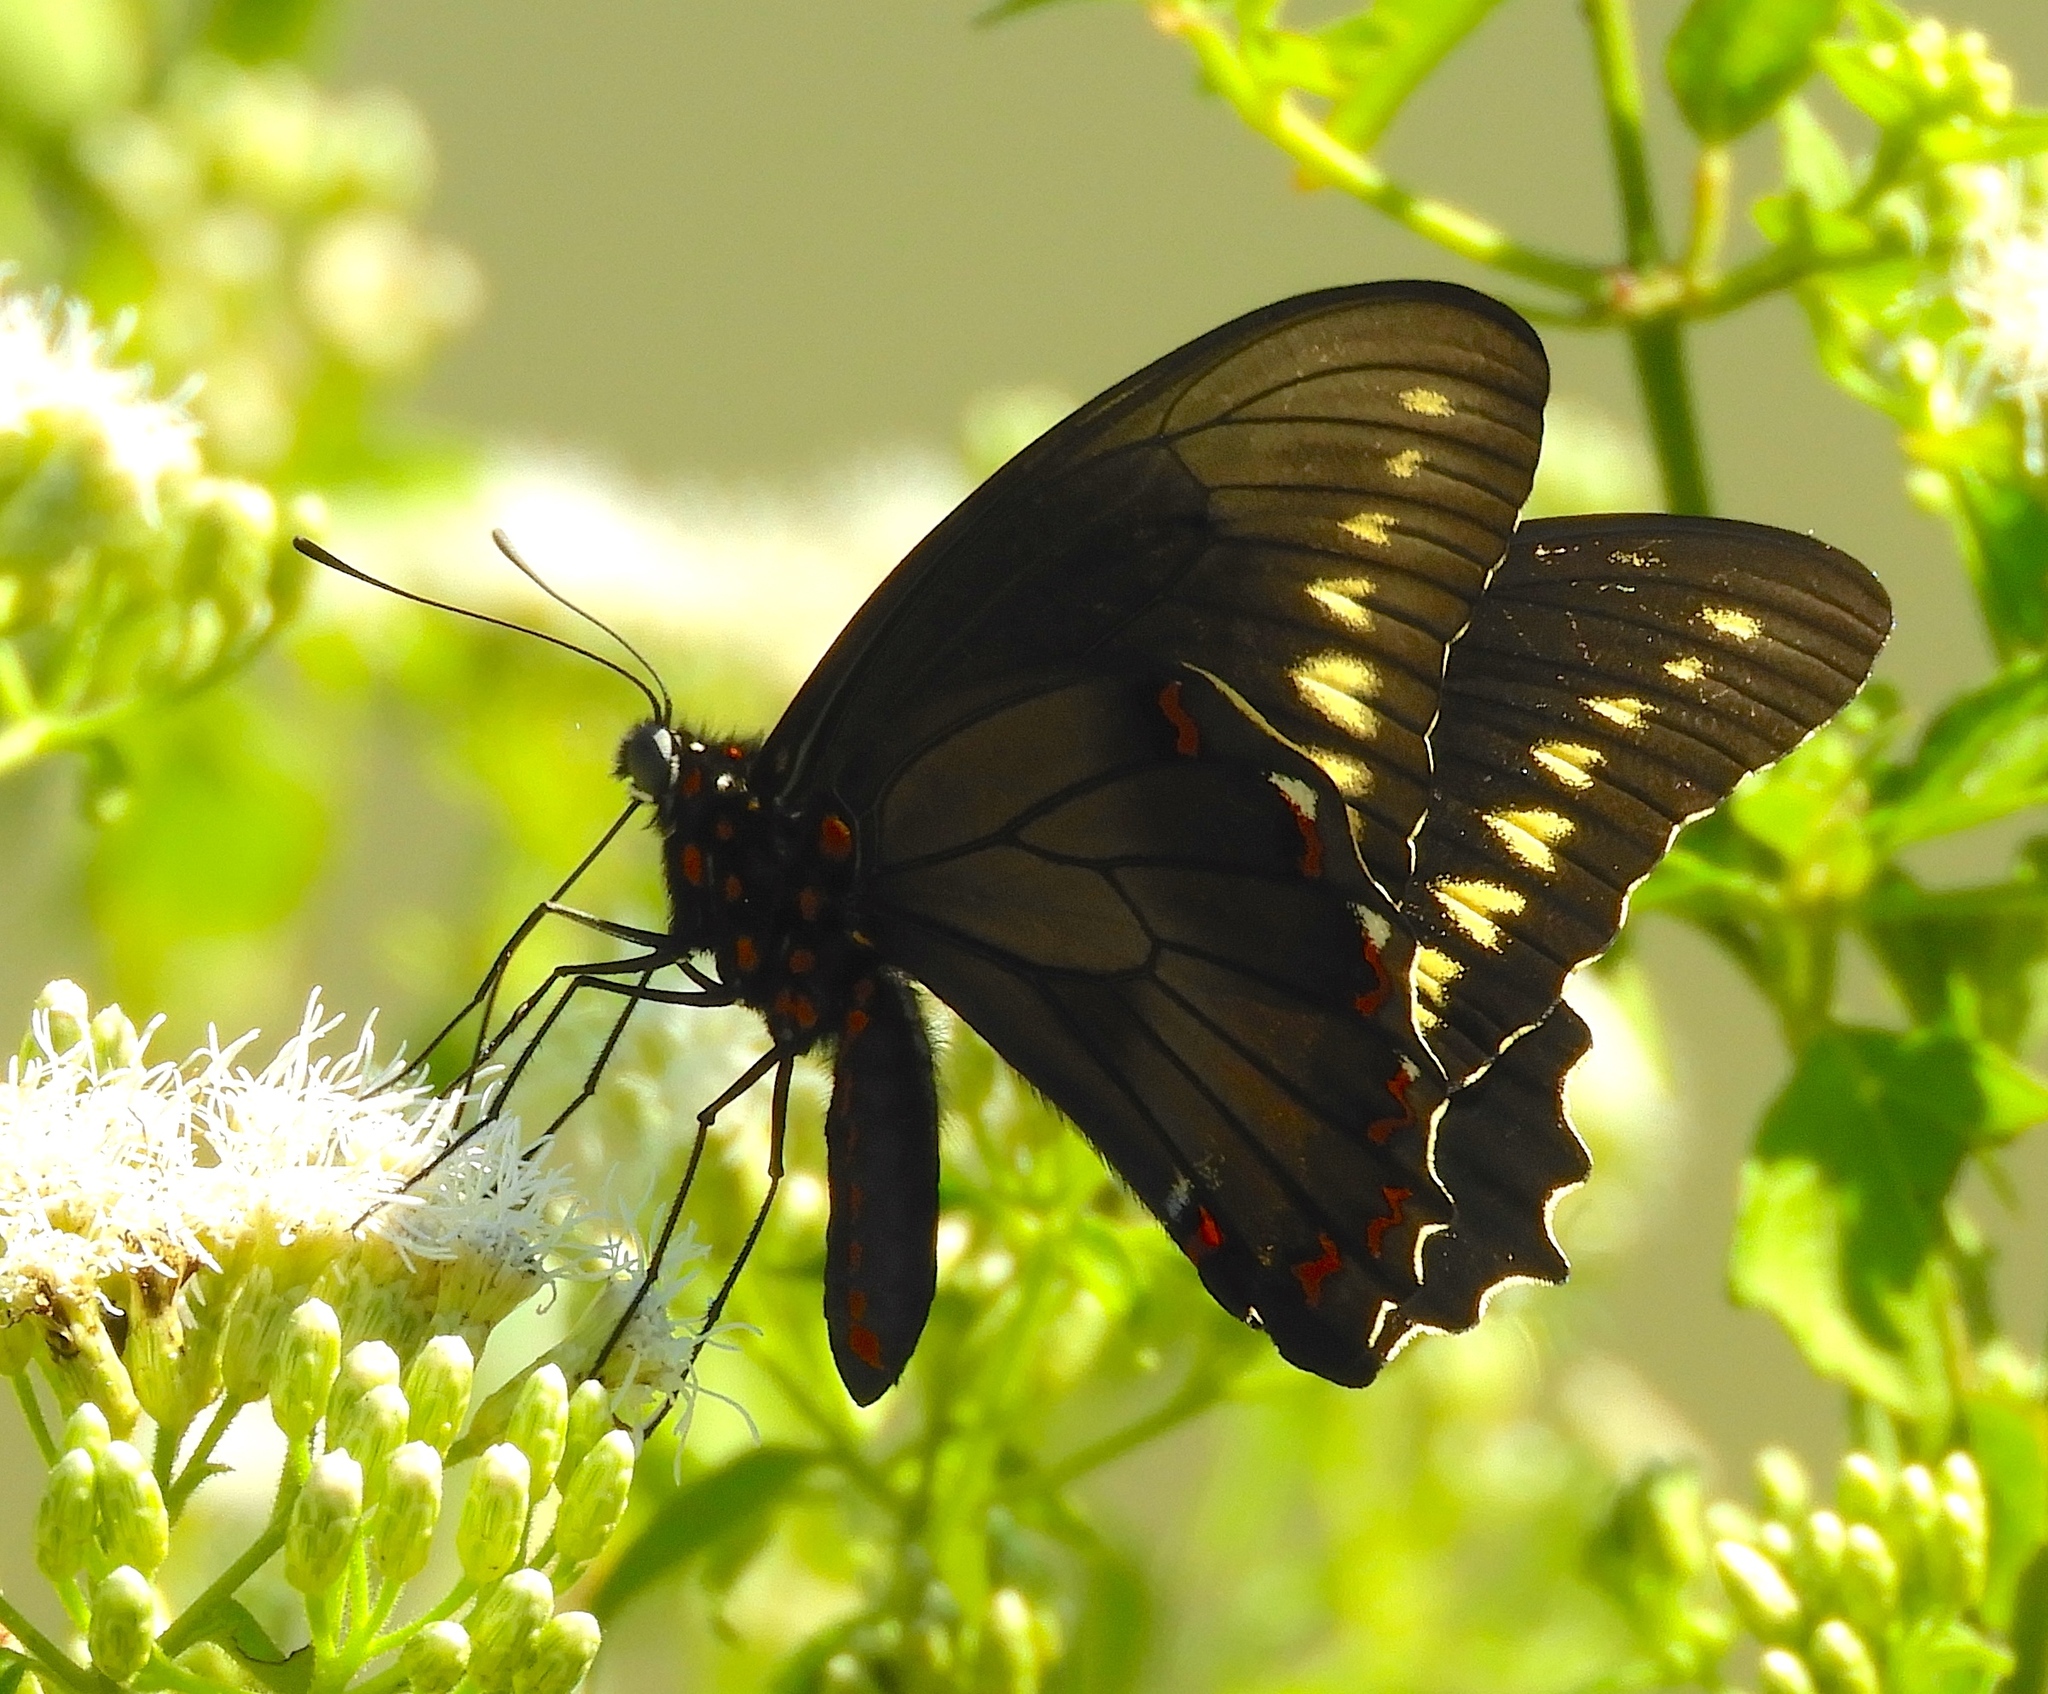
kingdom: Animalia
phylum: Arthropoda
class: Insecta
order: Lepidoptera
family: Papilionidae
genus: Battus
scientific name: Battus polydamas
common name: Polydamas swallowtail
